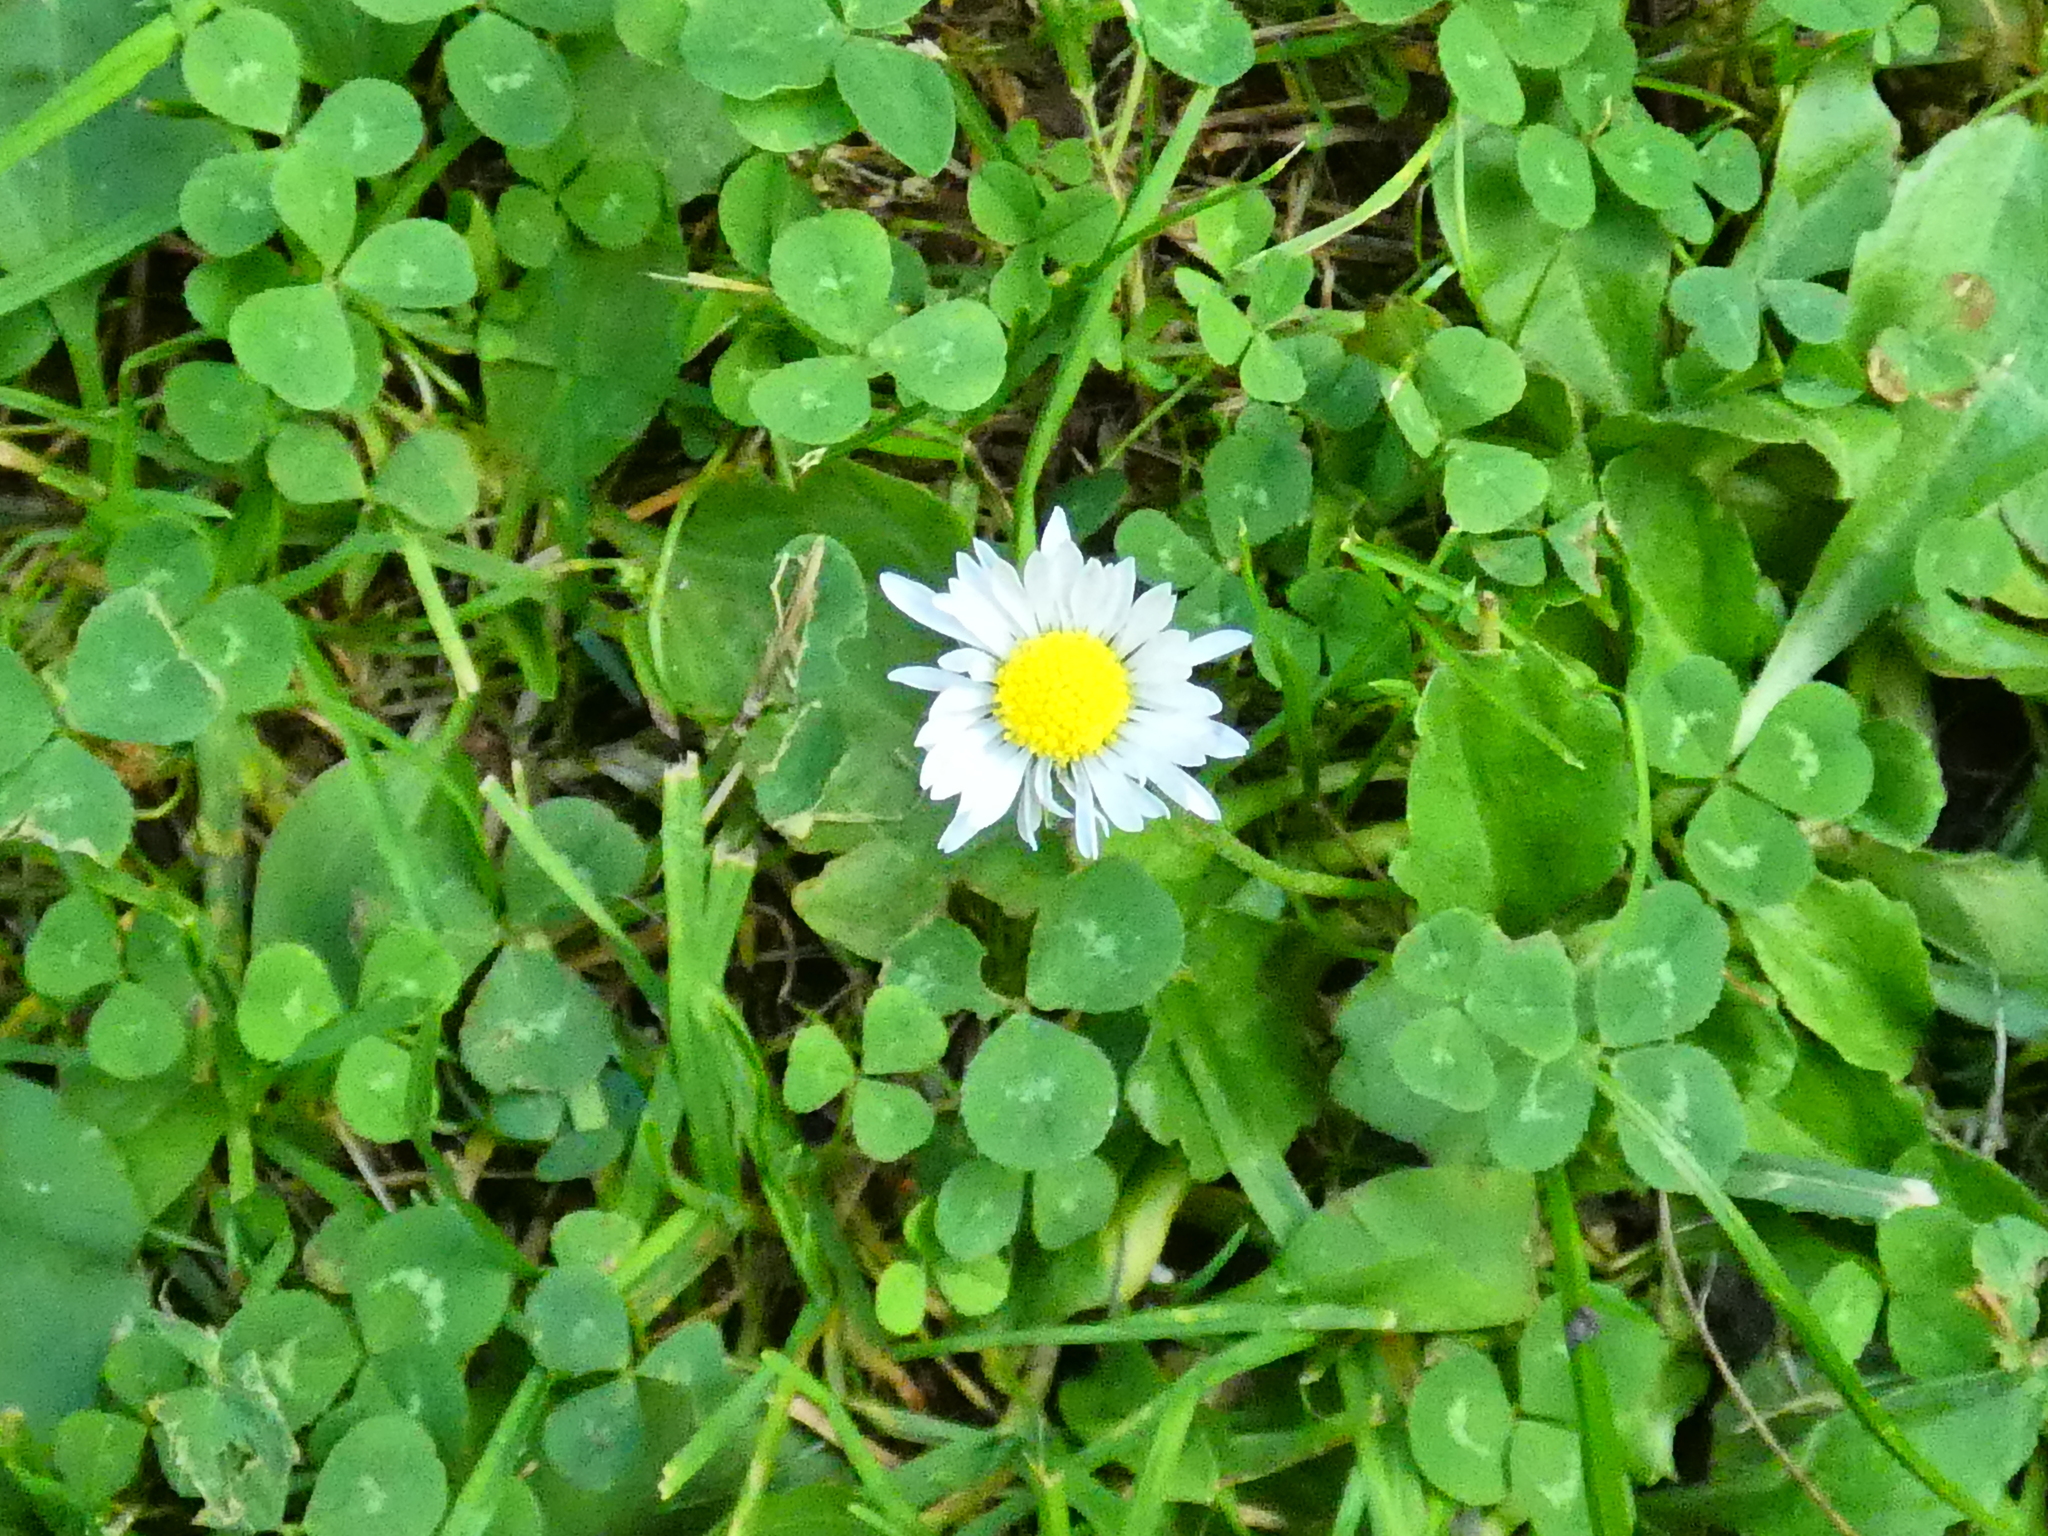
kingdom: Plantae
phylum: Tracheophyta
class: Magnoliopsida
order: Asterales
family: Asteraceae
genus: Bellis
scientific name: Bellis perennis
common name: Lawndaisy
